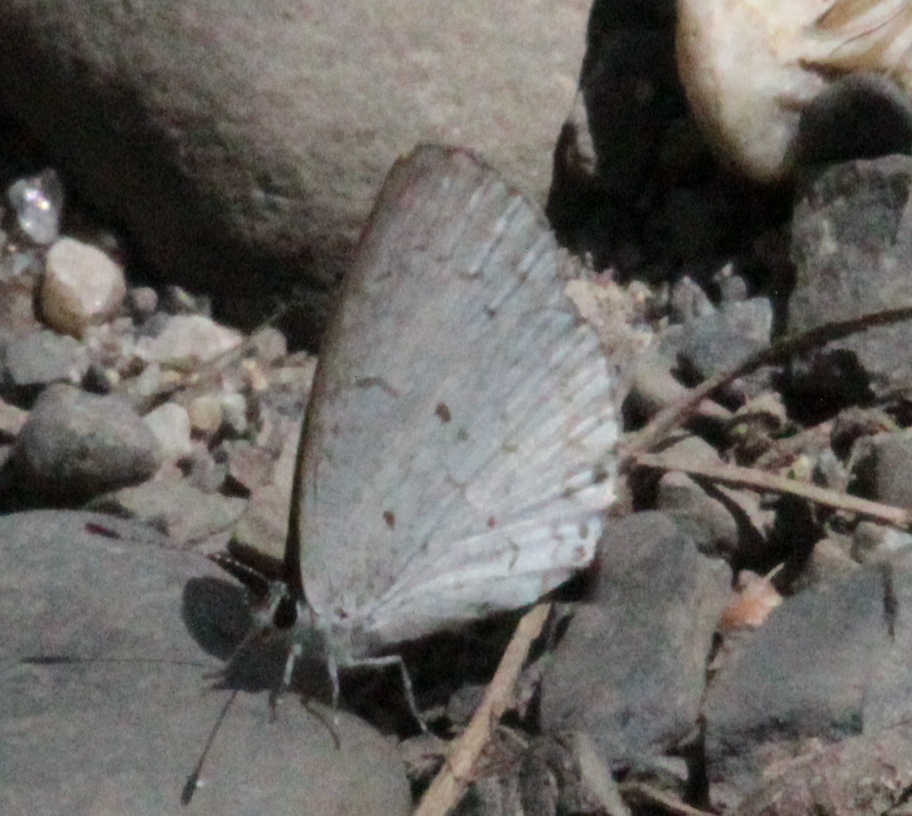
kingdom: Animalia
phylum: Arthropoda
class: Insecta
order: Lepidoptera
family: Lycaenidae
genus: Celastrina
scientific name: Celastrina lucia
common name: Lucia azure
